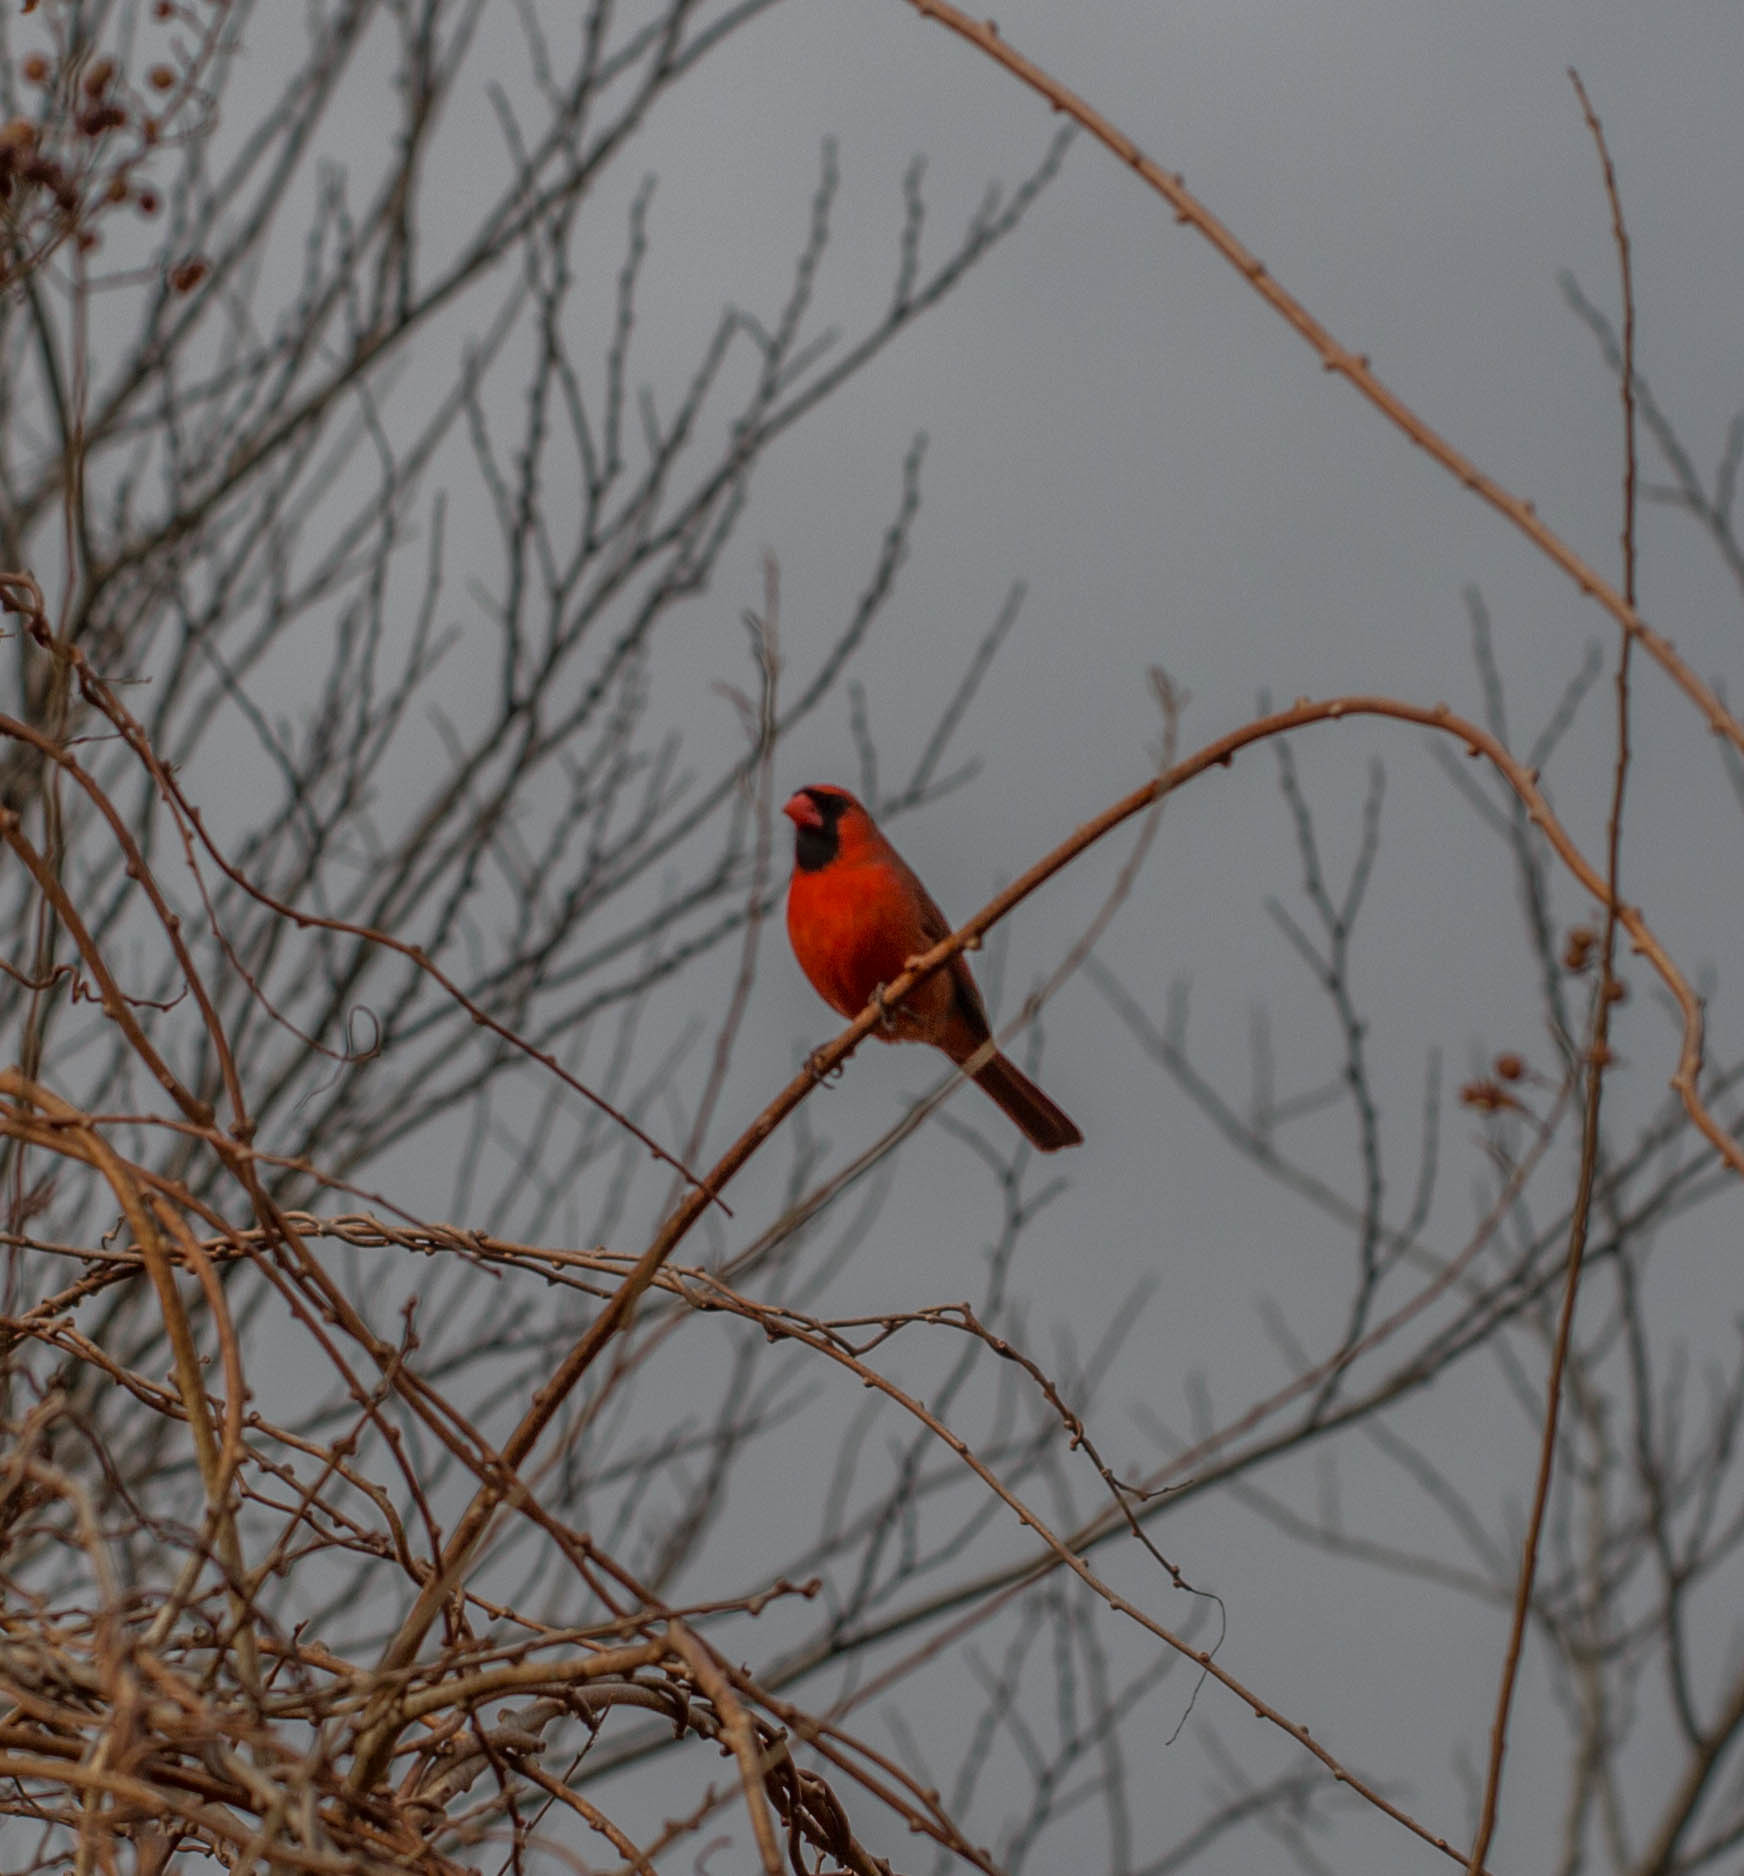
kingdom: Animalia
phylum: Chordata
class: Aves
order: Passeriformes
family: Cardinalidae
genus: Cardinalis
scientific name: Cardinalis cardinalis
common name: Northern cardinal
